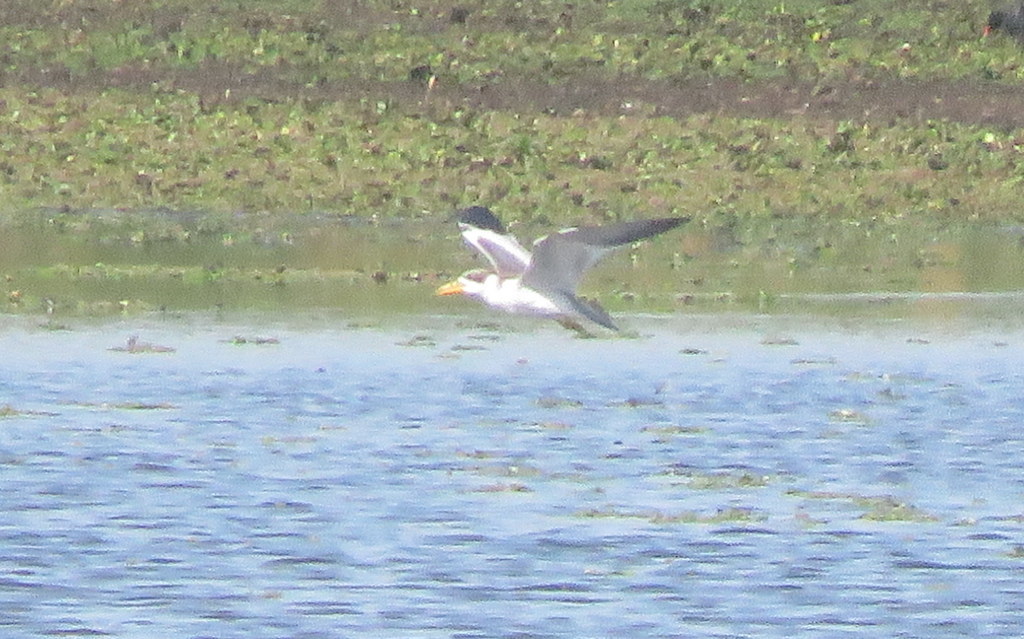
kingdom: Animalia
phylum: Chordata
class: Aves
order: Charadriiformes
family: Laridae
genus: Phaetusa
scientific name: Phaetusa simplex
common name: Large-billed tern
